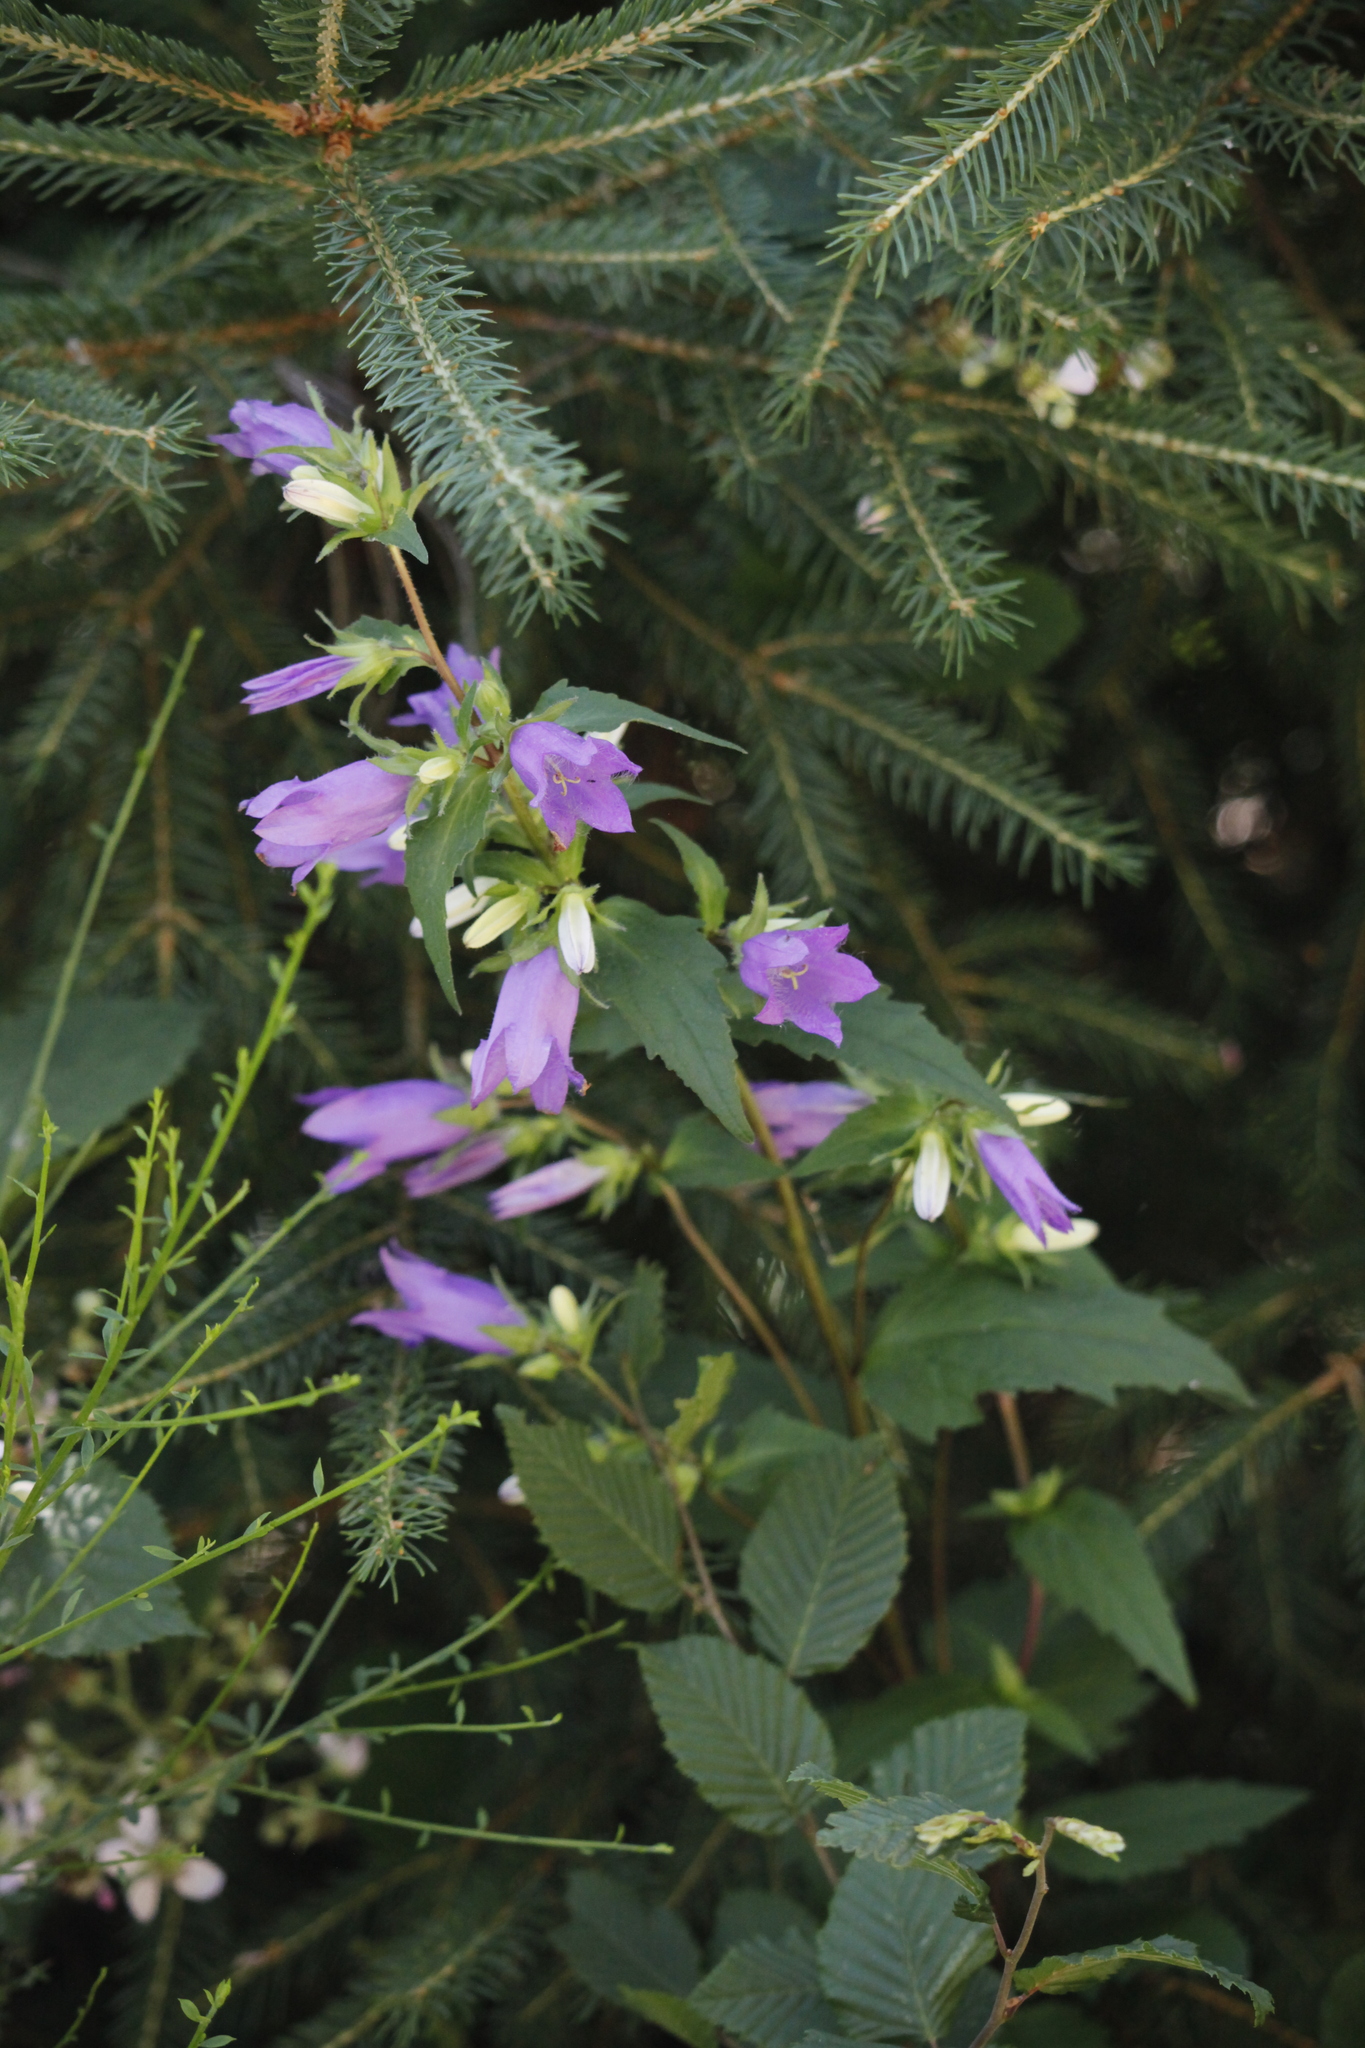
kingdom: Plantae
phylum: Tracheophyta
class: Magnoliopsida
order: Asterales
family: Campanulaceae
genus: Campanula
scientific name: Campanula trachelium
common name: Nettle-leaved bellflower
